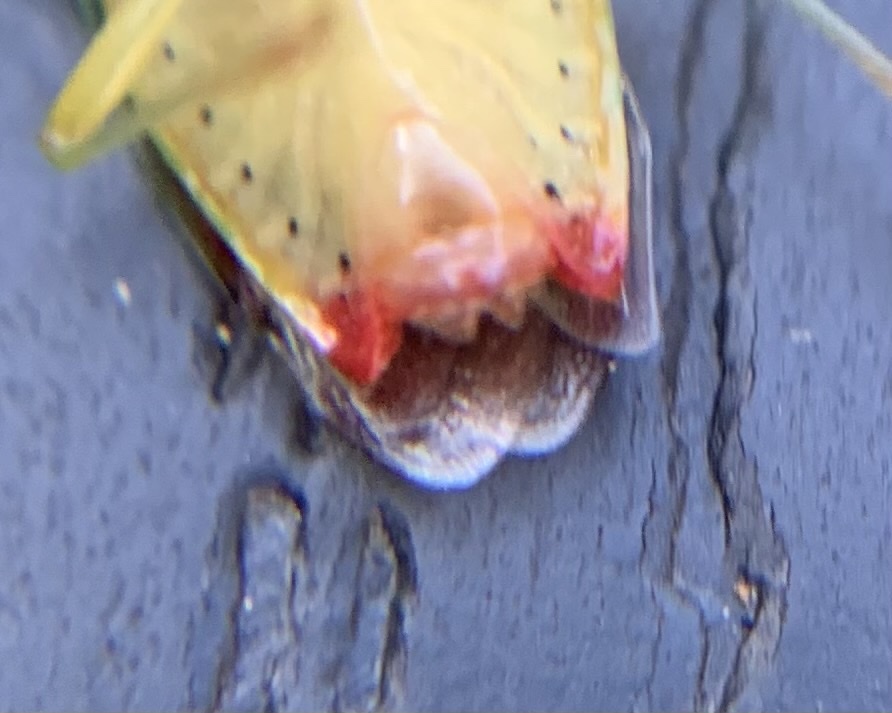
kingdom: Animalia
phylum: Arthropoda
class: Insecta
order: Hemiptera
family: Acanthosomatidae
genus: Elasmostethus
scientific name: Elasmostethus interstinctus
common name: Birch shieldbug
